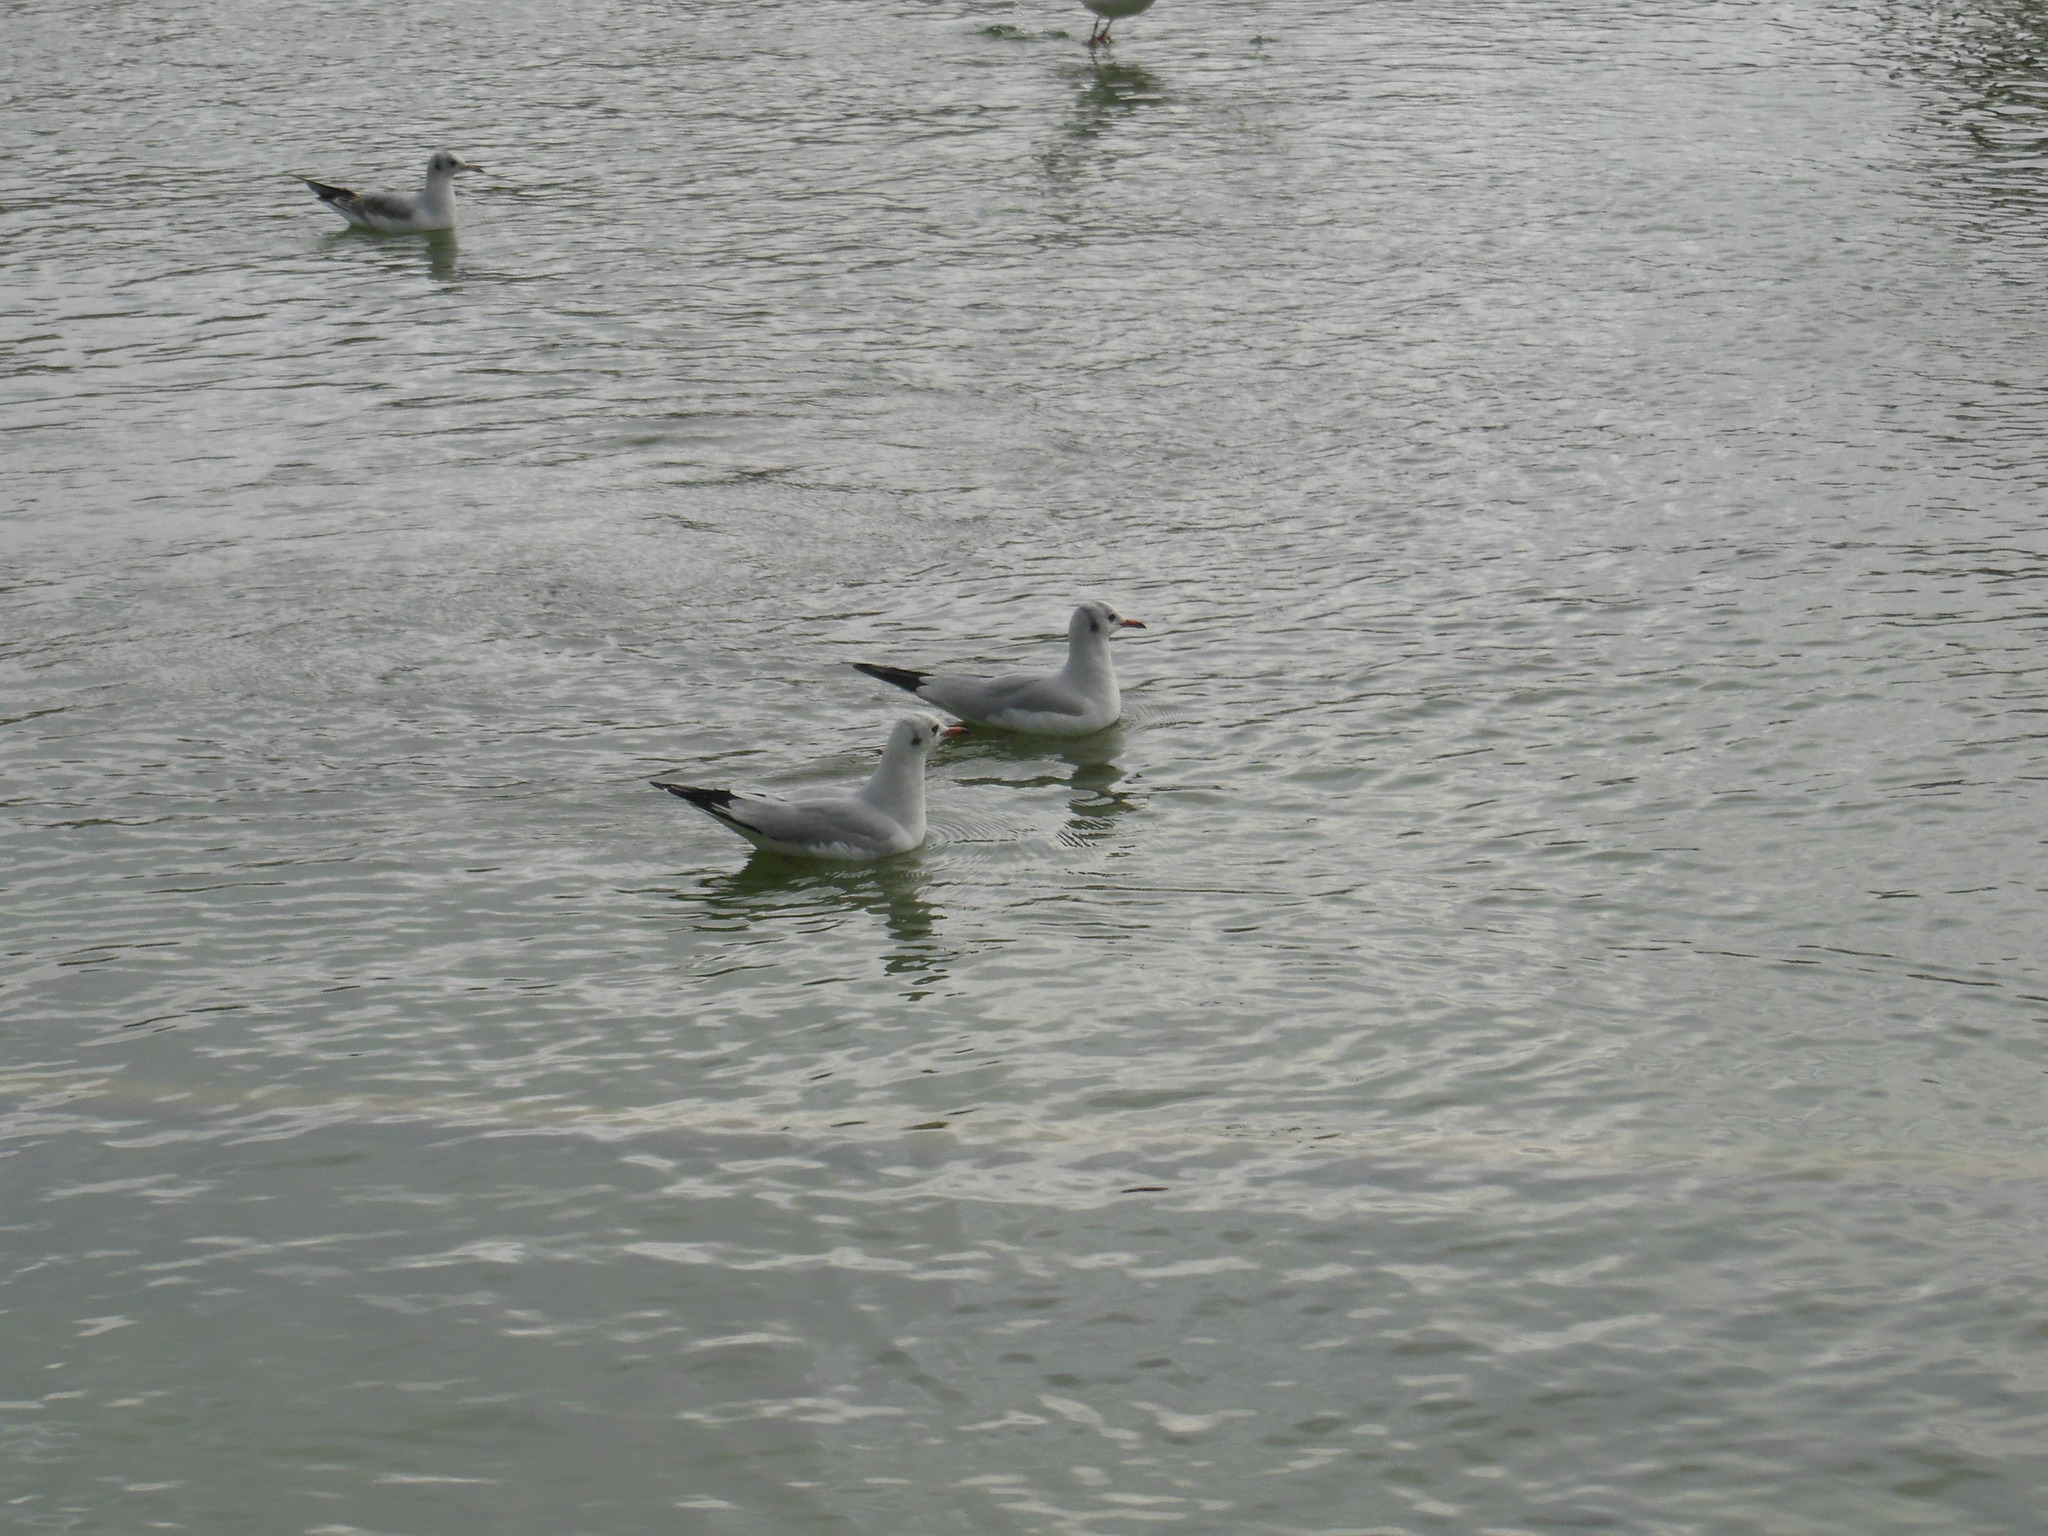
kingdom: Animalia
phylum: Chordata
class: Aves
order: Charadriiformes
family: Laridae
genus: Chroicocephalus
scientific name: Chroicocephalus ridibundus
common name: Black-headed gull
